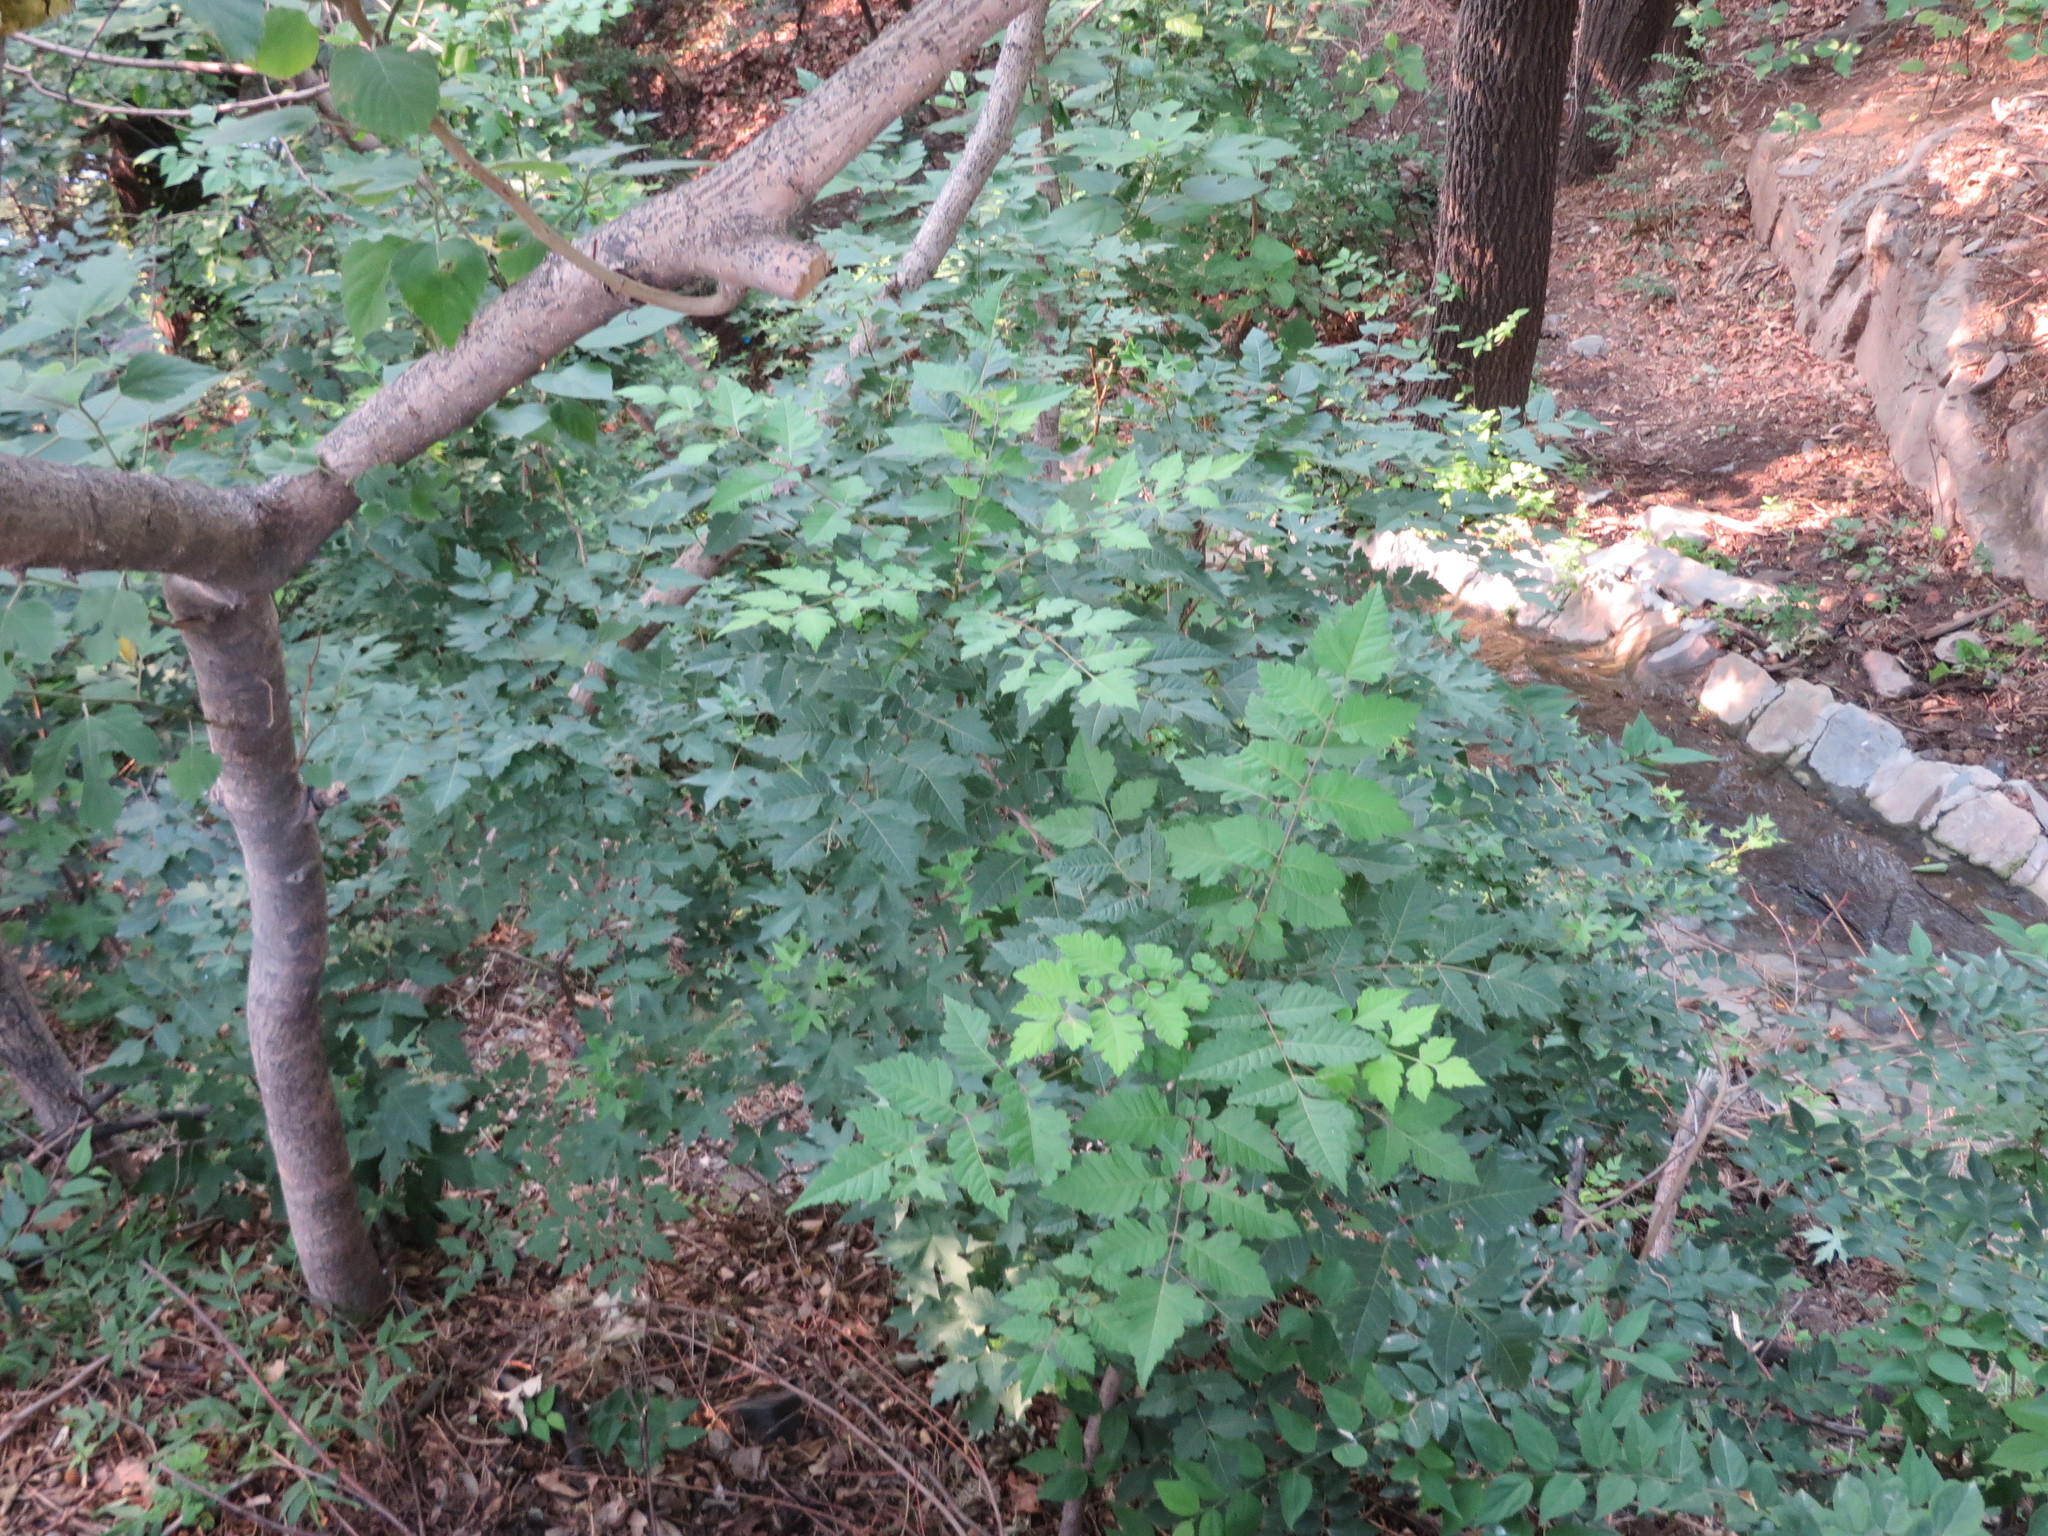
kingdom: Plantae
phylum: Tracheophyta
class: Magnoliopsida
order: Sapindales
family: Sapindaceae
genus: Koelreuteria
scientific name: Koelreuteria paniculata
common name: Pride-of-india
